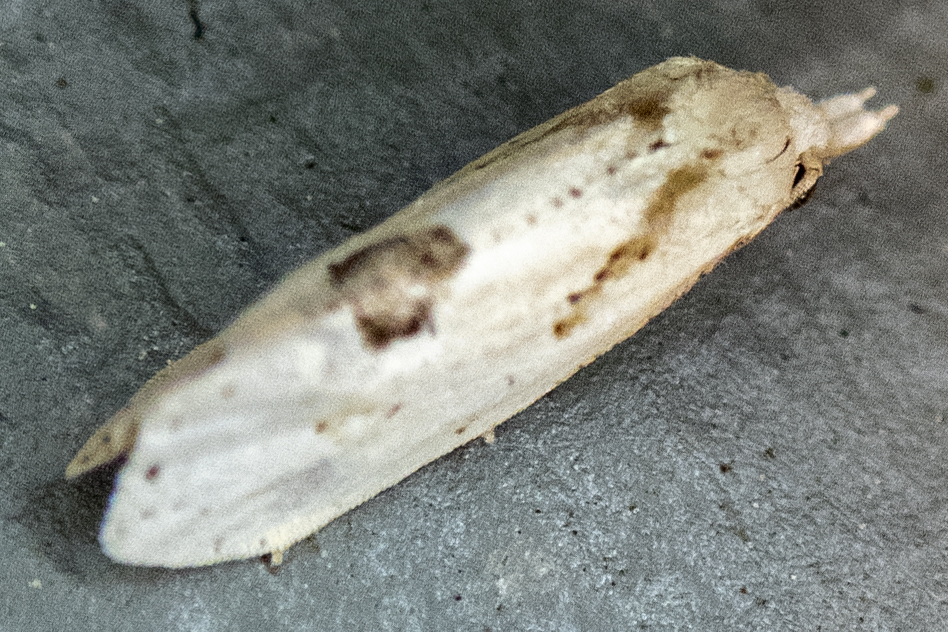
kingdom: Animalia
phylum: Arthropoda
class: Insecta
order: Lepidoptera
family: Tortricidae
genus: Aethes
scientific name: Aethes mymara
